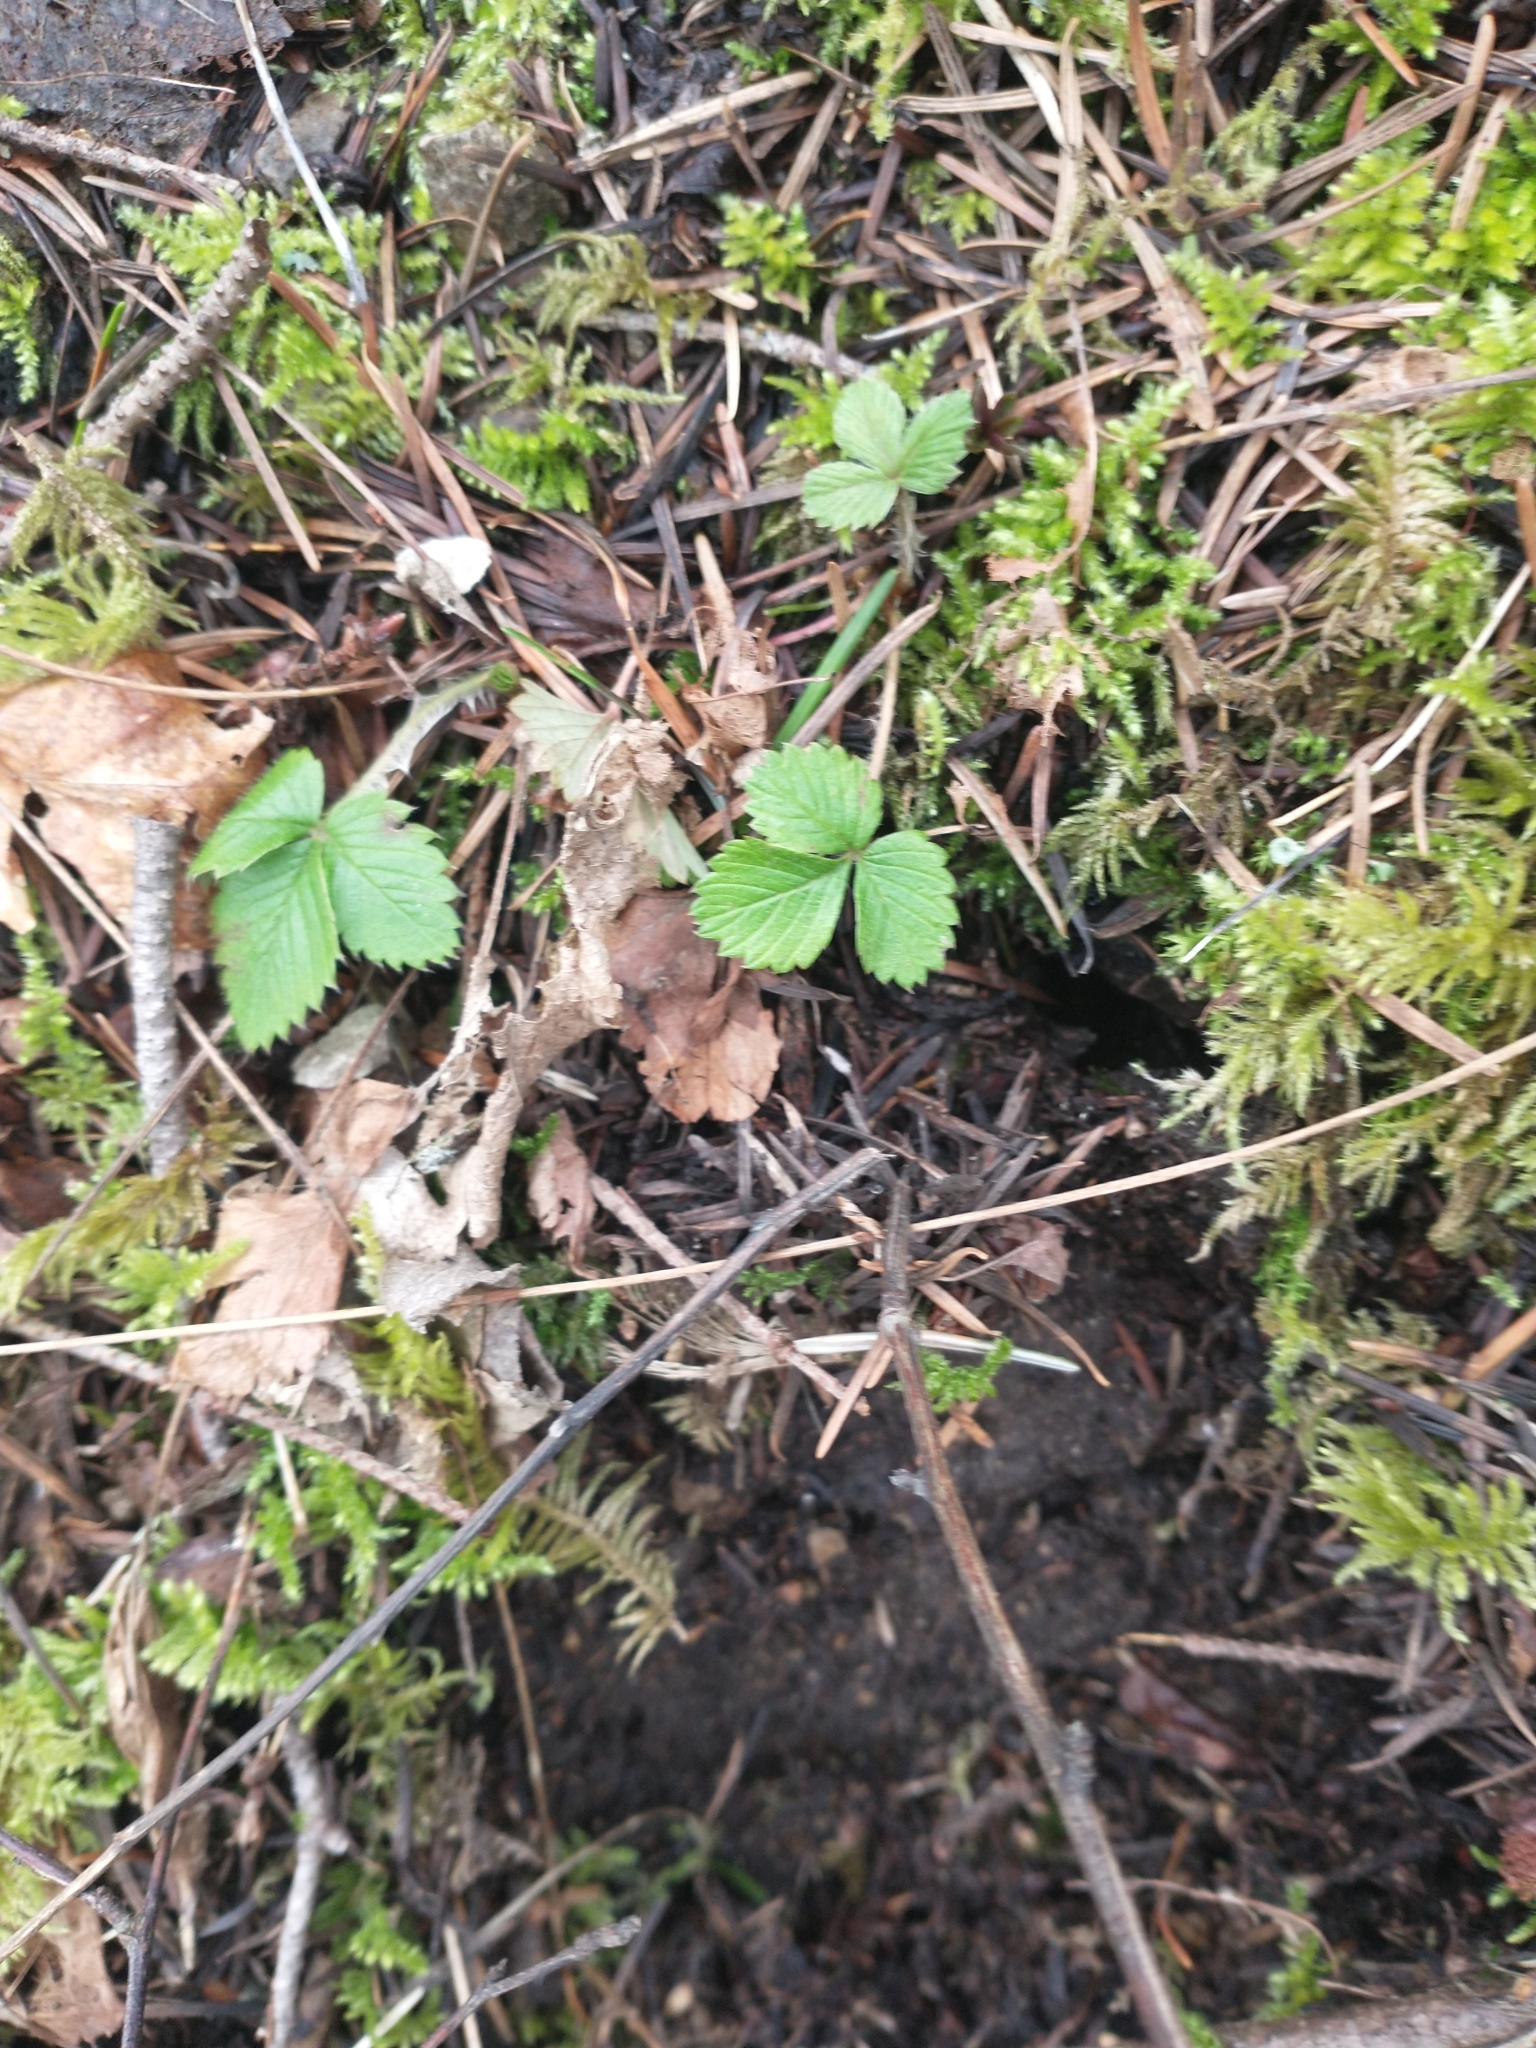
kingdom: Plantae
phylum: Tracheophyta
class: Magnoliopsida
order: Rosales
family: Rosaceae
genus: Fragaria
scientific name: Fragaria vesca
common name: Wild strawberry
